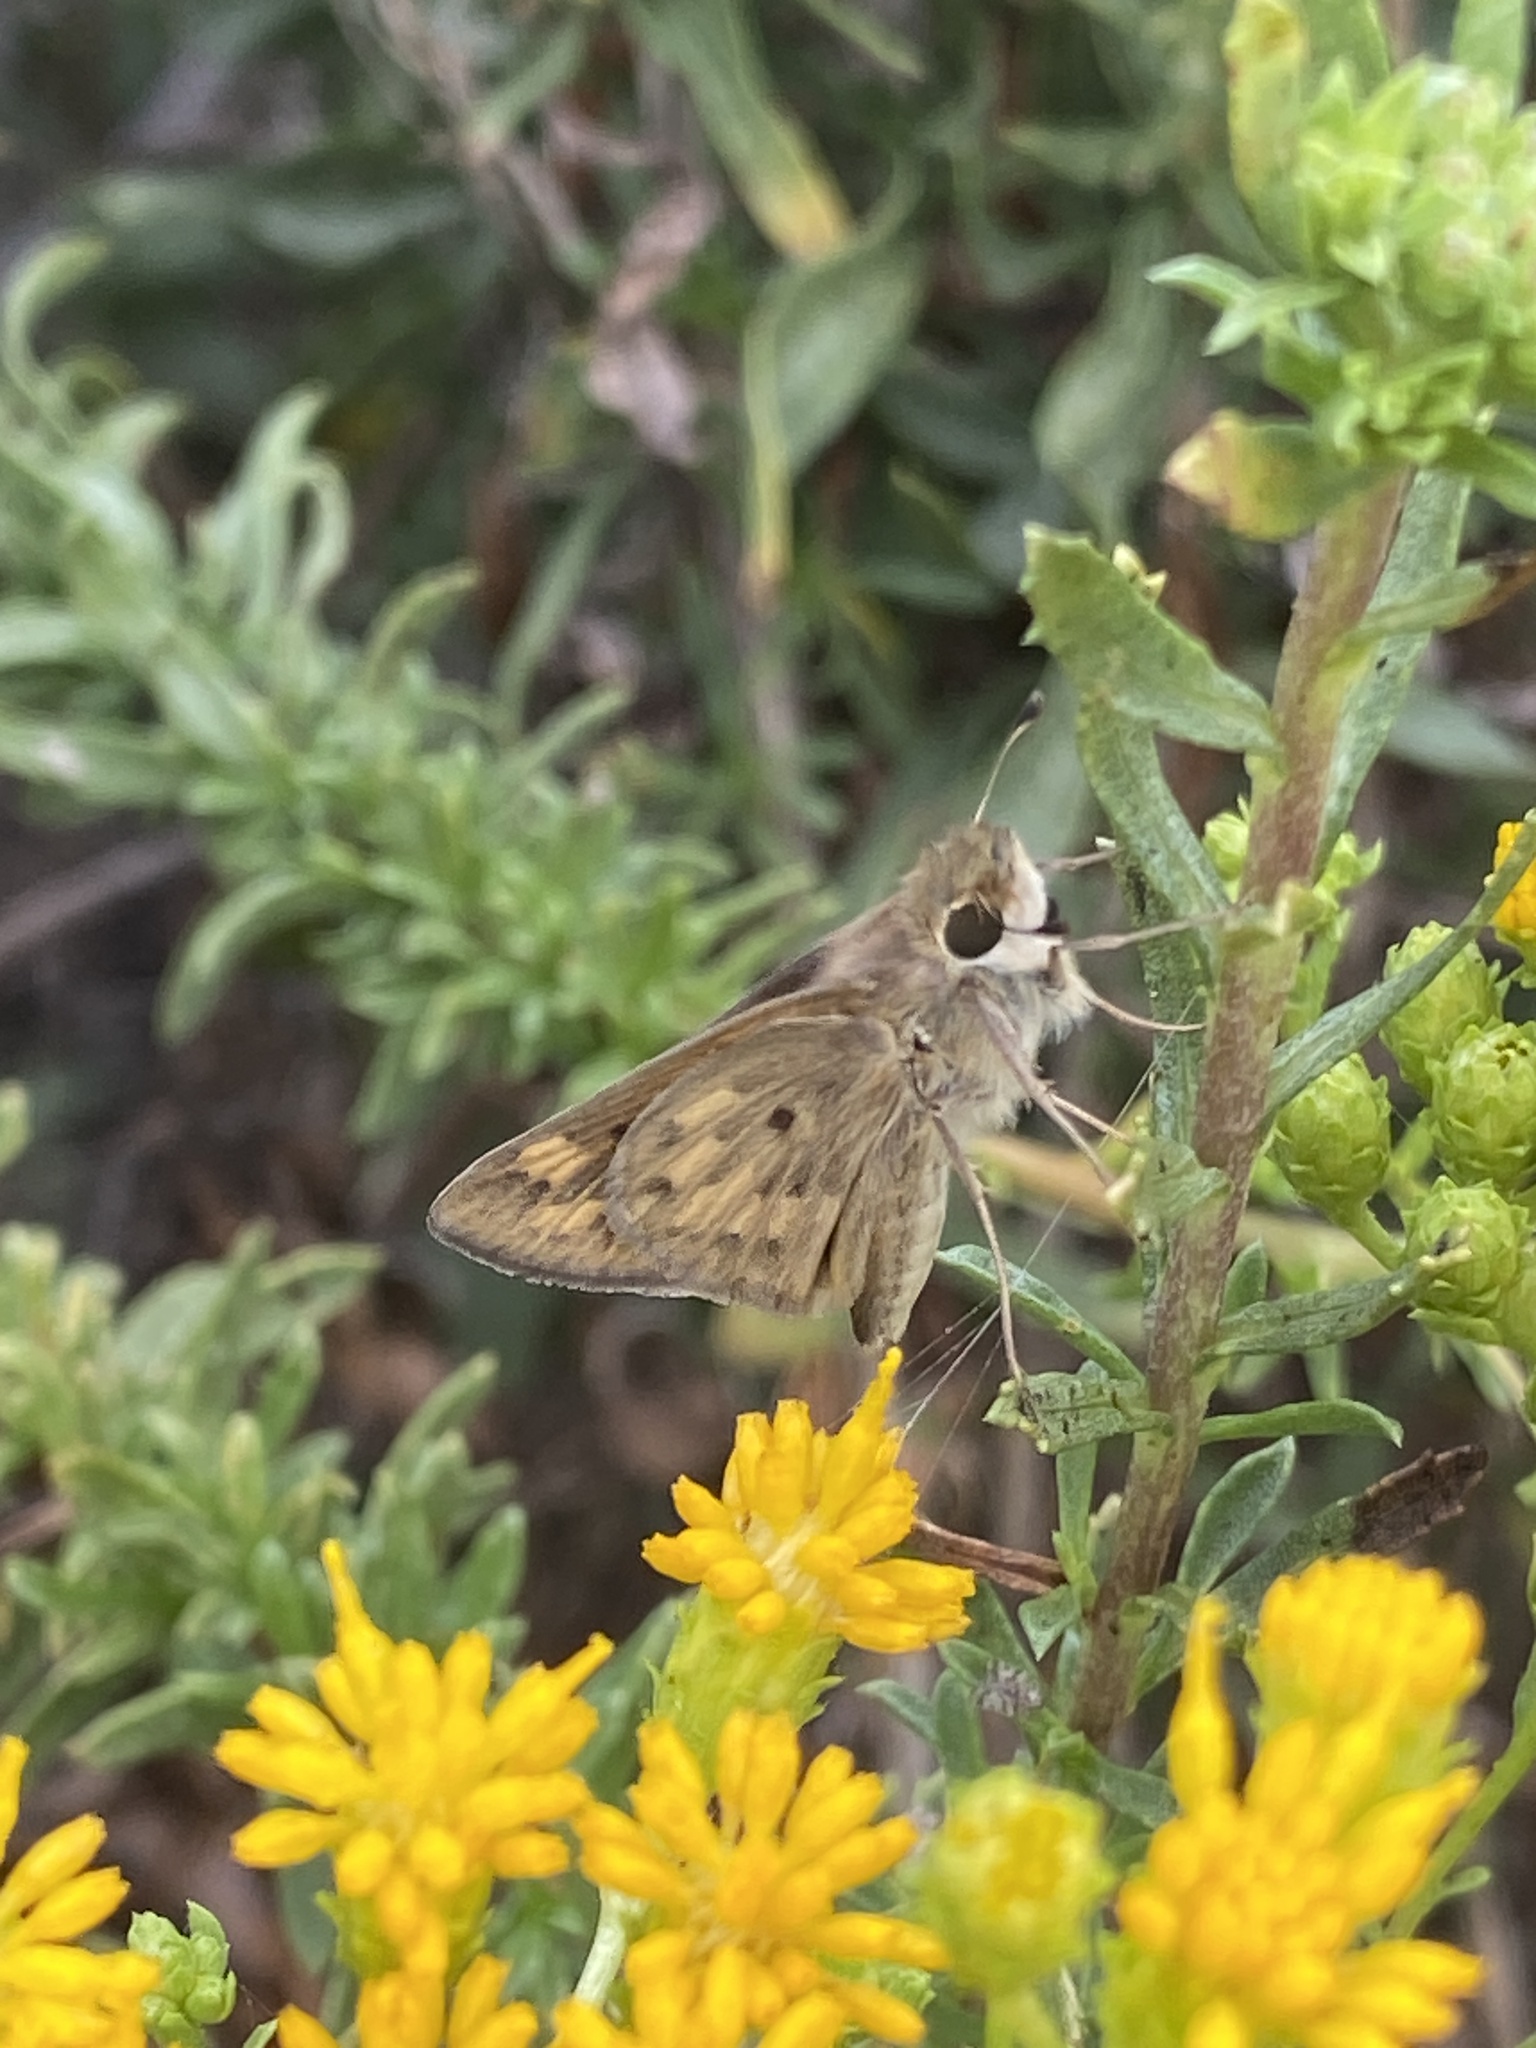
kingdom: Animalia
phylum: Arthropoda
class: Insecta
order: Lepidoptera
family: Hesperiidae
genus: Hylephila
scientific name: Hylephila phyleus
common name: Fiery skipper
